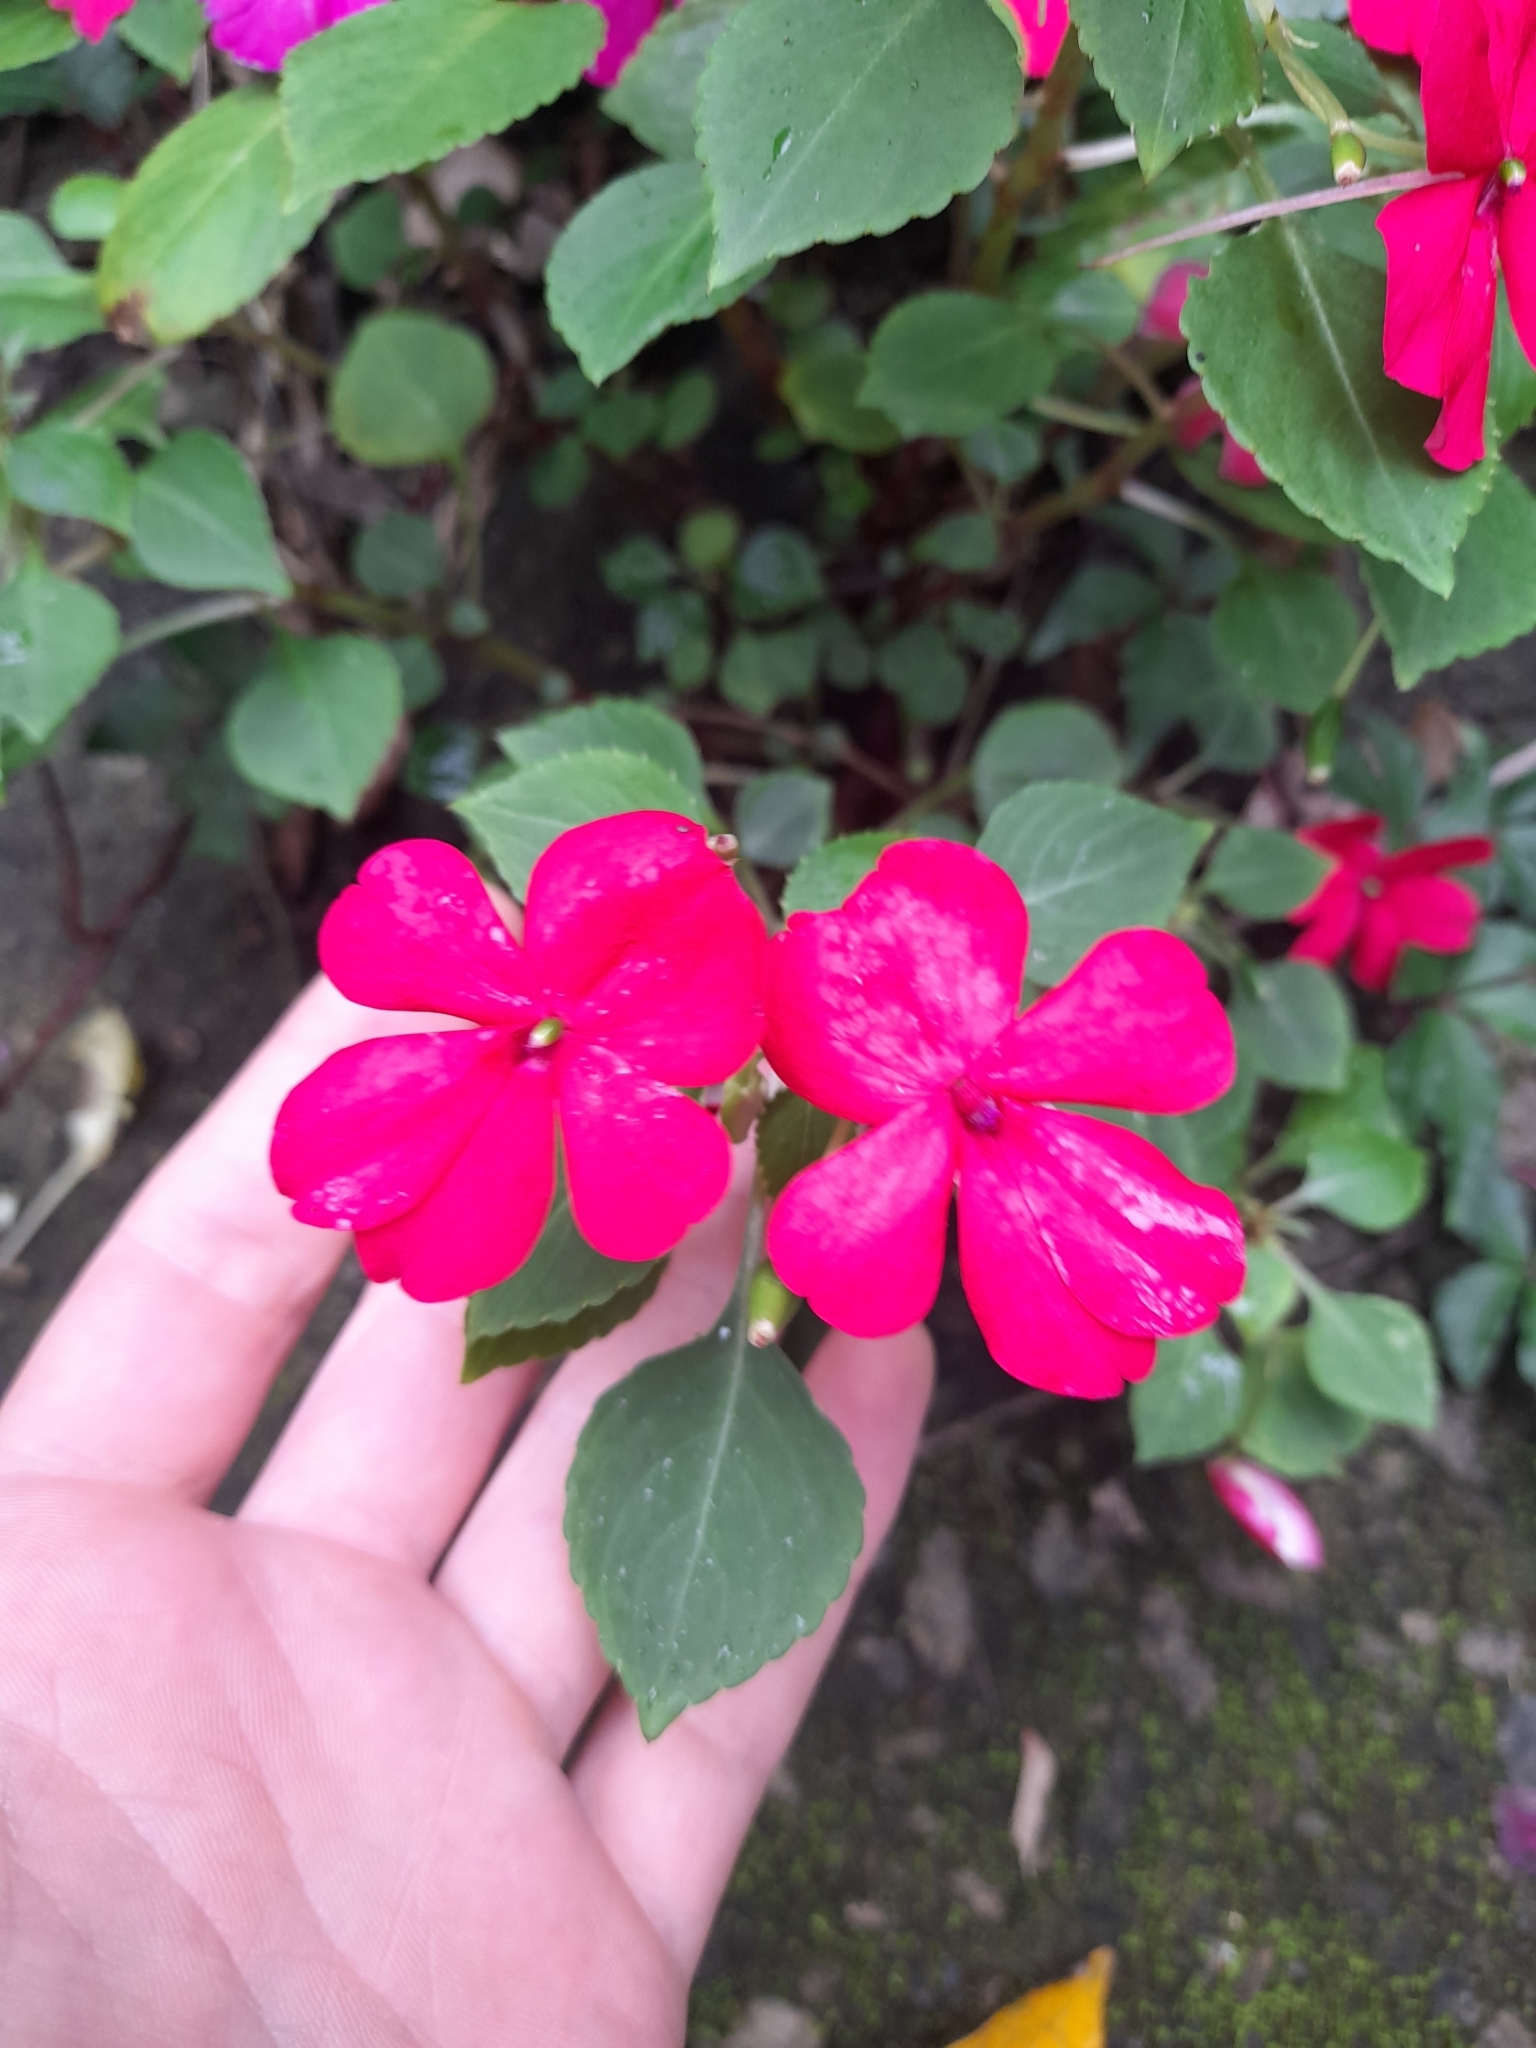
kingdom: Plantae
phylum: Tracheophyta
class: Magnoliopsida
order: Ericales
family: Balsaminaceae
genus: Impatiens
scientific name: Impatiens walleriana
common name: Buzzy lizzy
